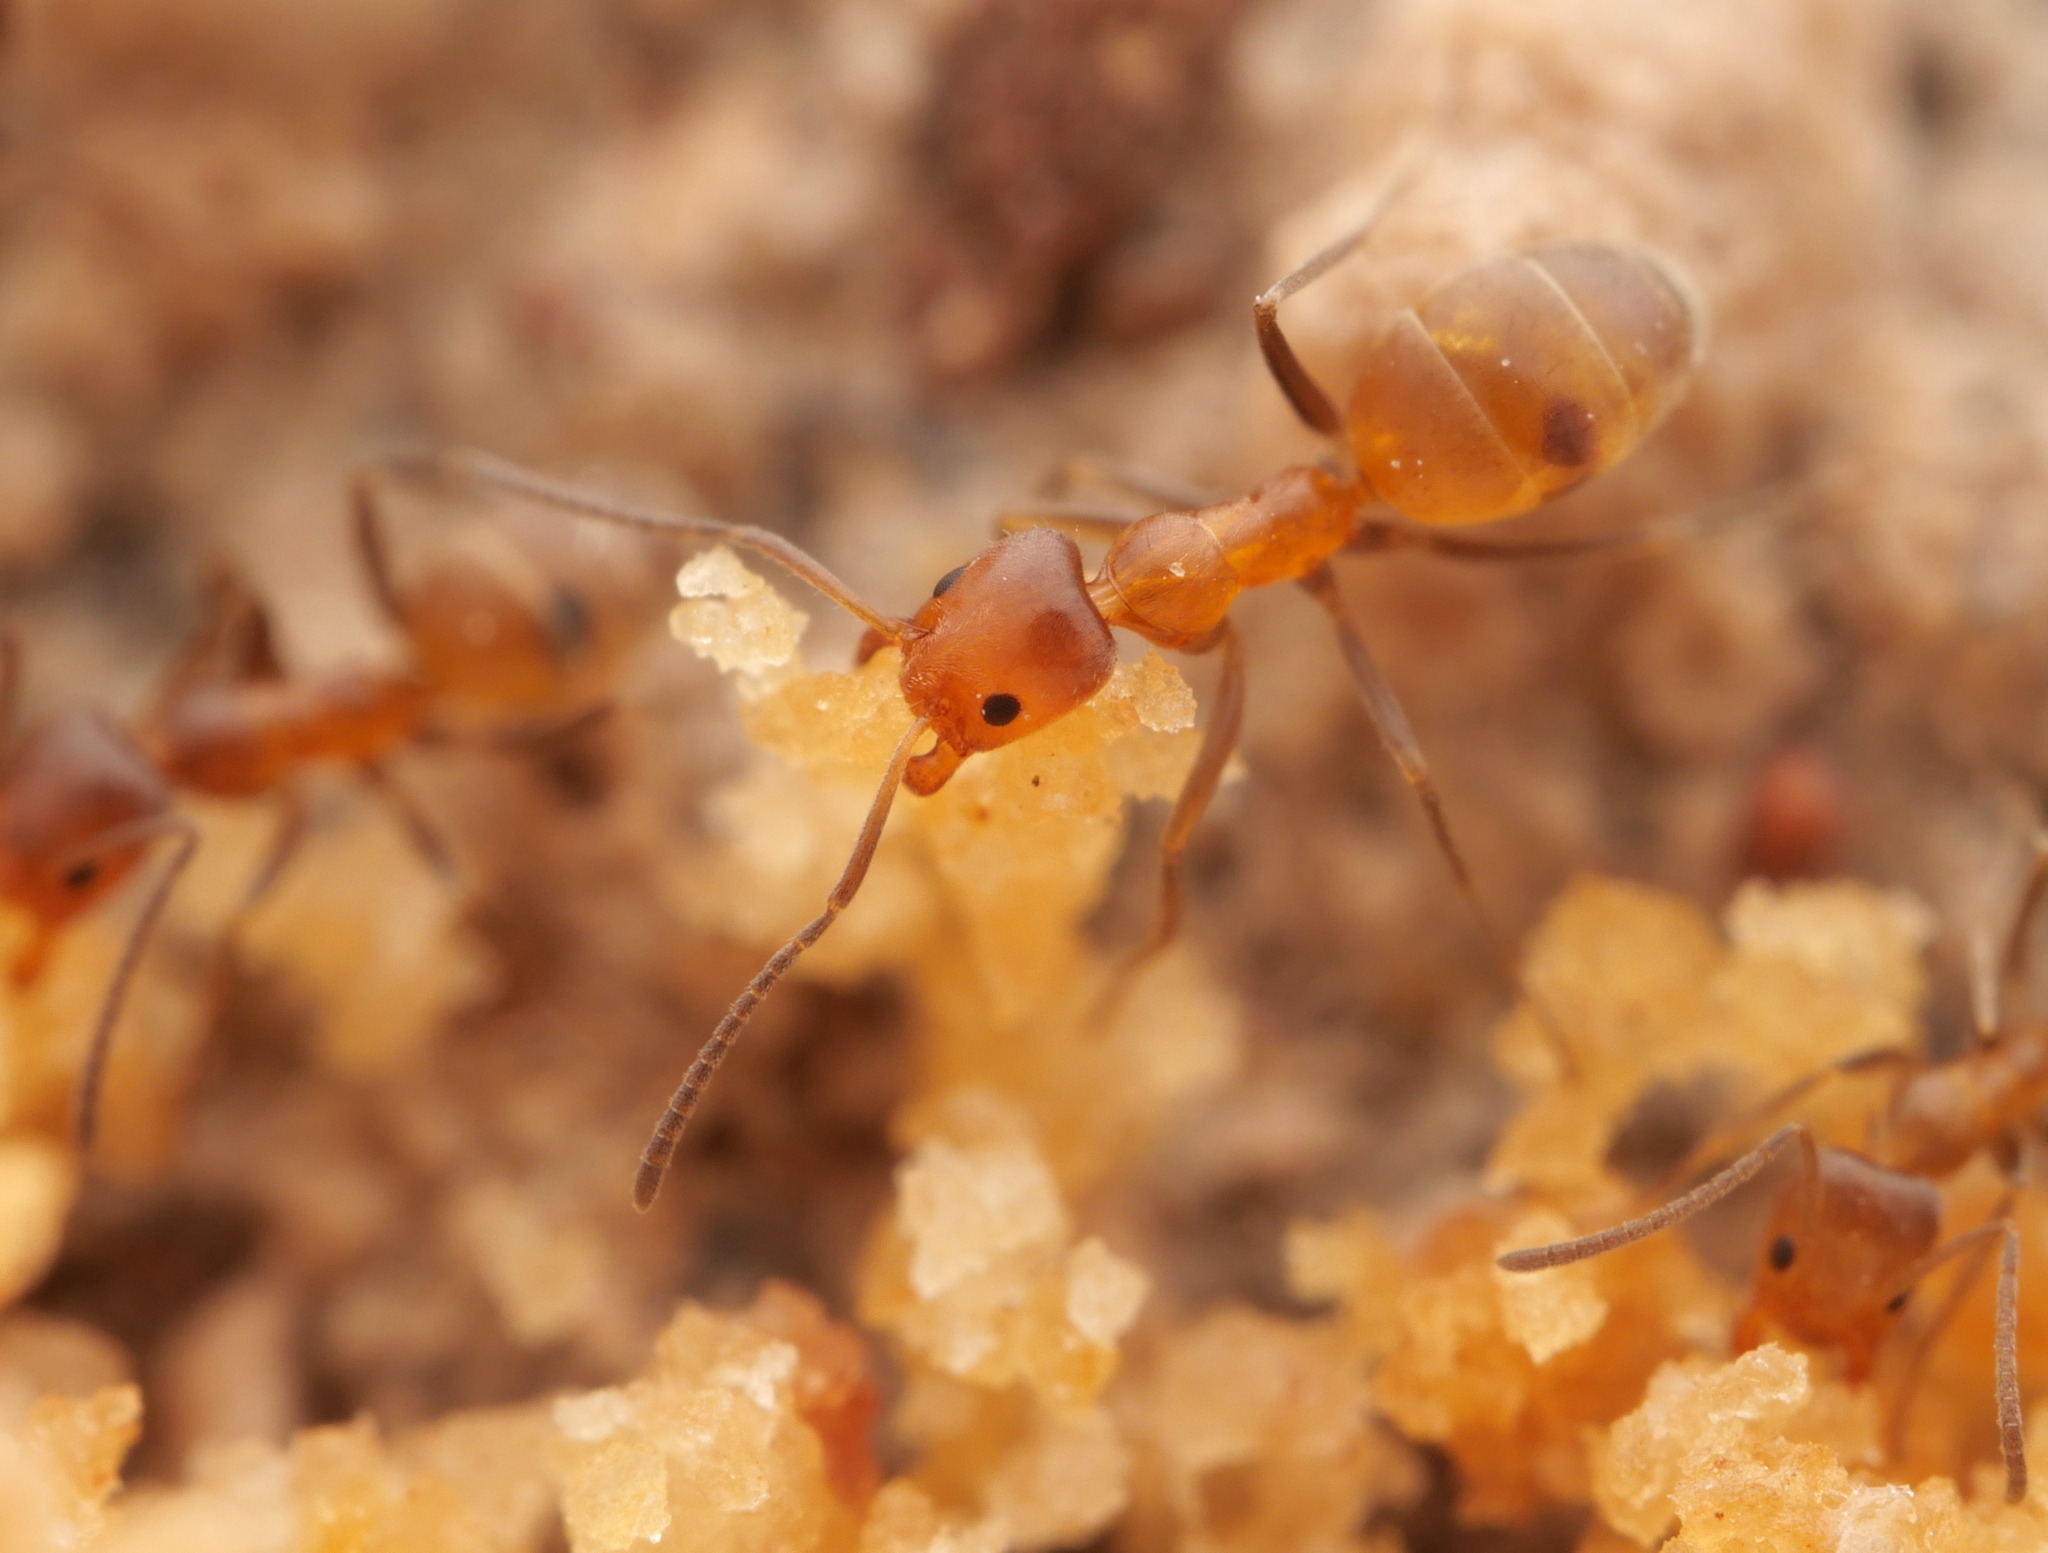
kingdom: Animalia
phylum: Arthropoda
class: Insecta
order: Hymenoptera
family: Formicidae
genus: Forelius
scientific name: Forelius mccooki
